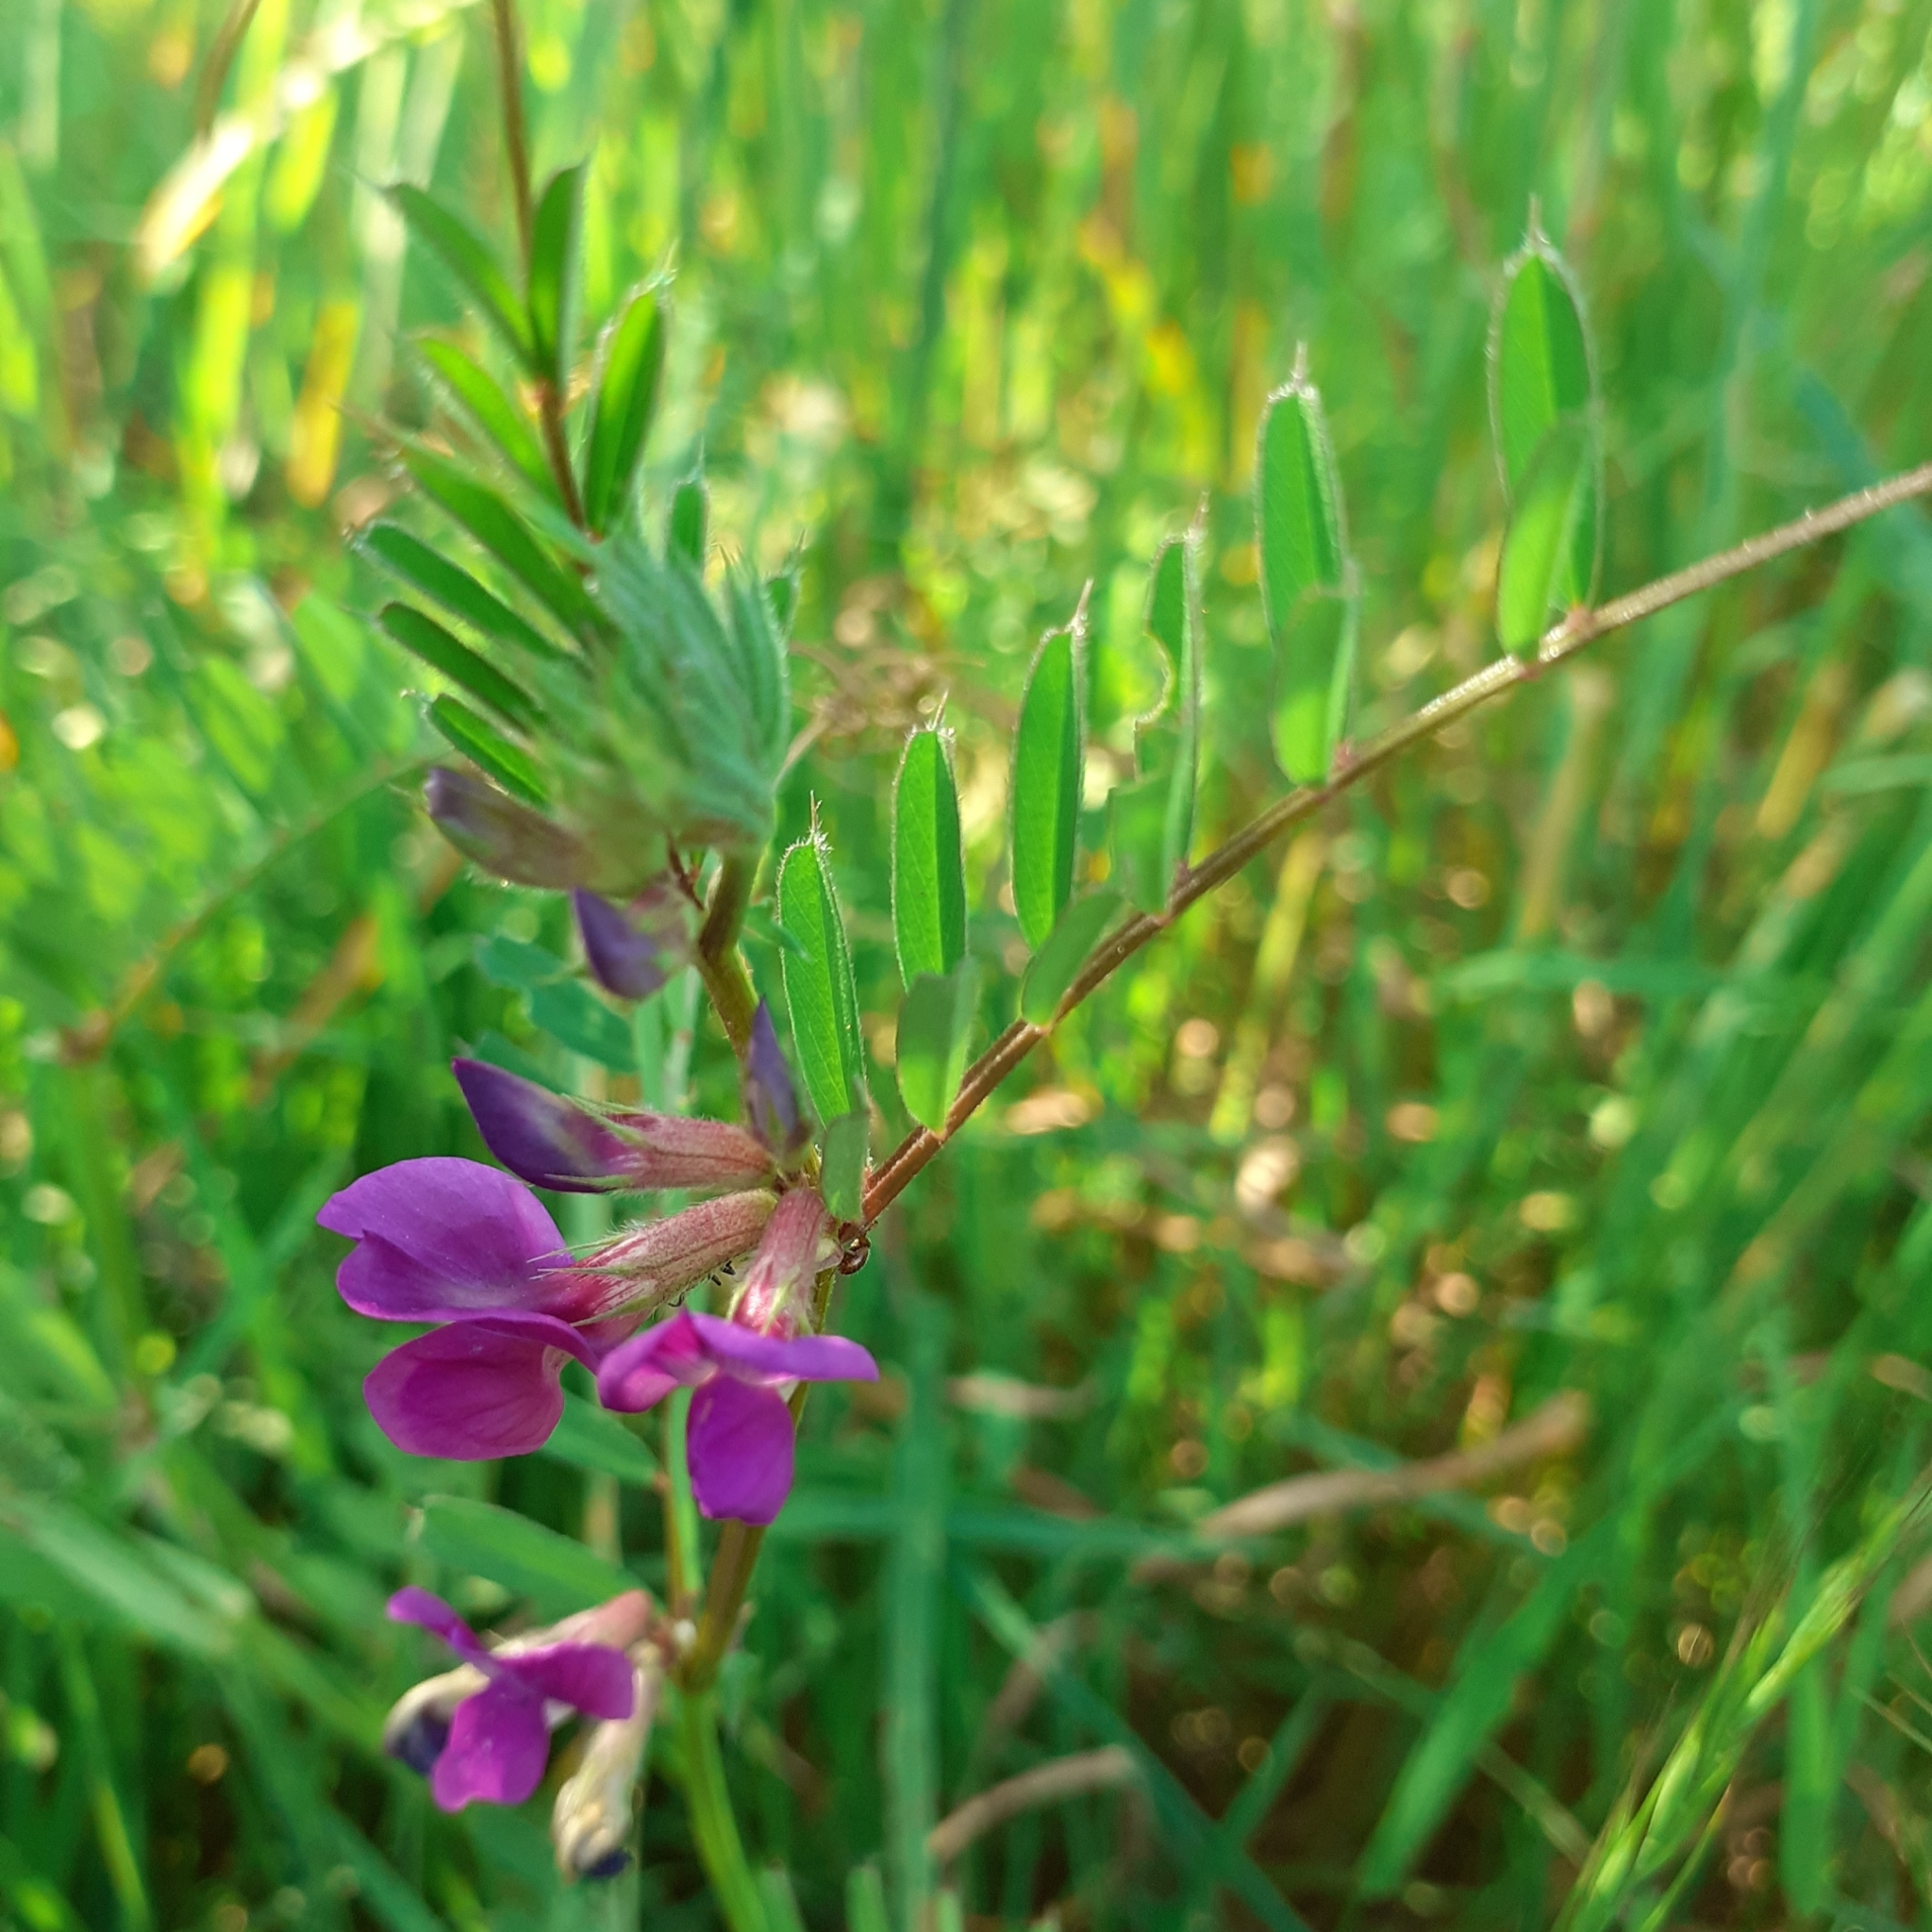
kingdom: Plantae
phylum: Tracheophyta
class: Magnoliopsida
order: Fabales
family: Fabaceae
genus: Vicia
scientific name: Vicia sativa
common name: Garden vetch
